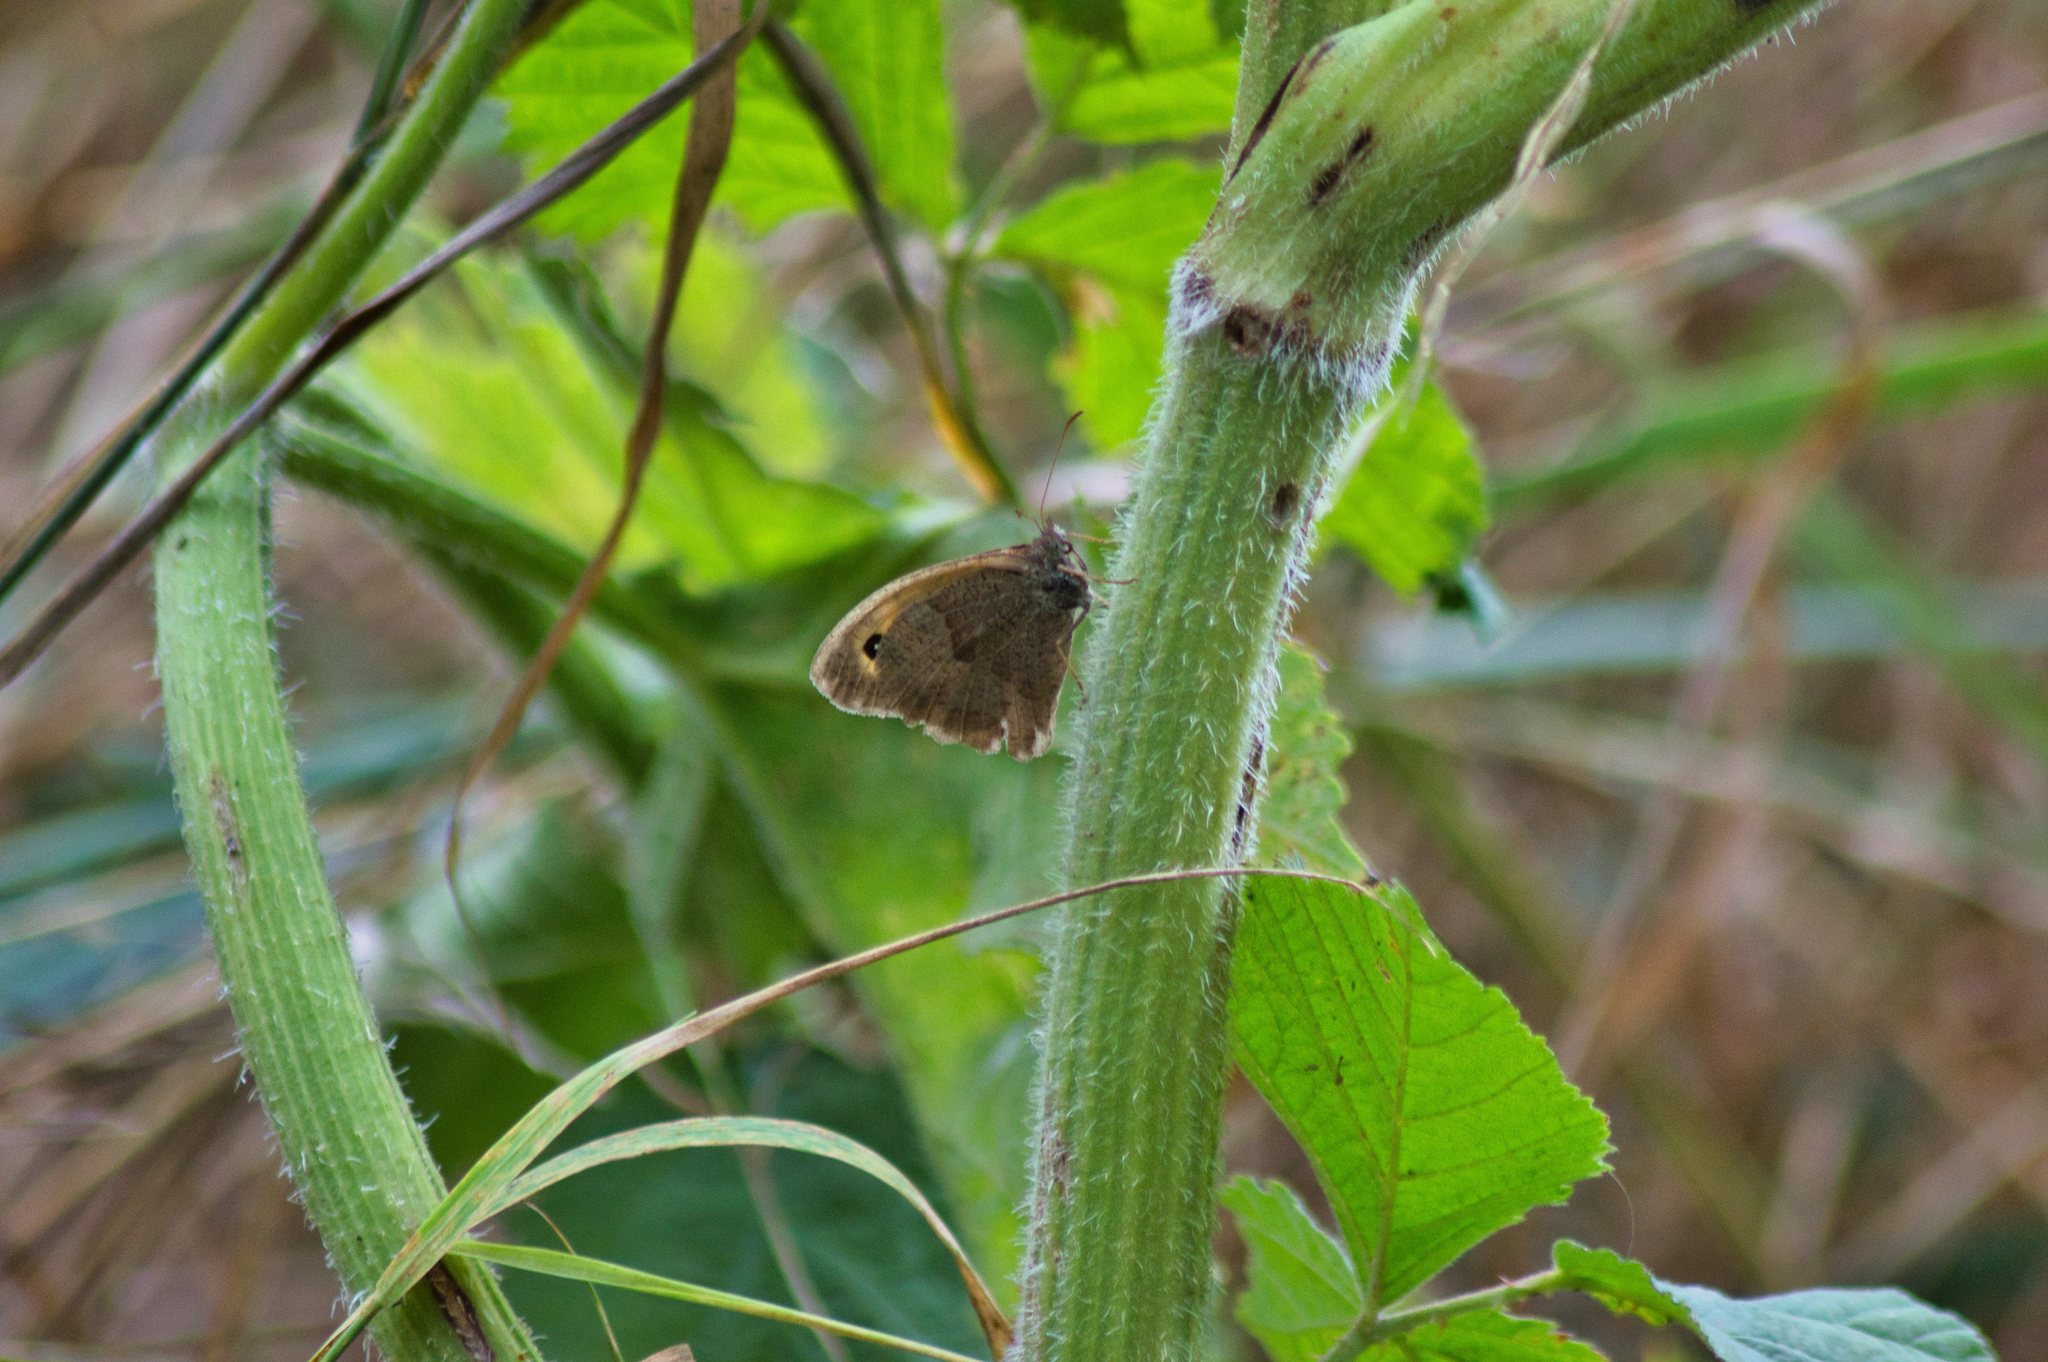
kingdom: Animalia
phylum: Arthropoda
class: Insecta
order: Lepidoptera
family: Nymphalidae
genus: Maniola
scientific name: Maniola jurtina
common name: Meadow brown
